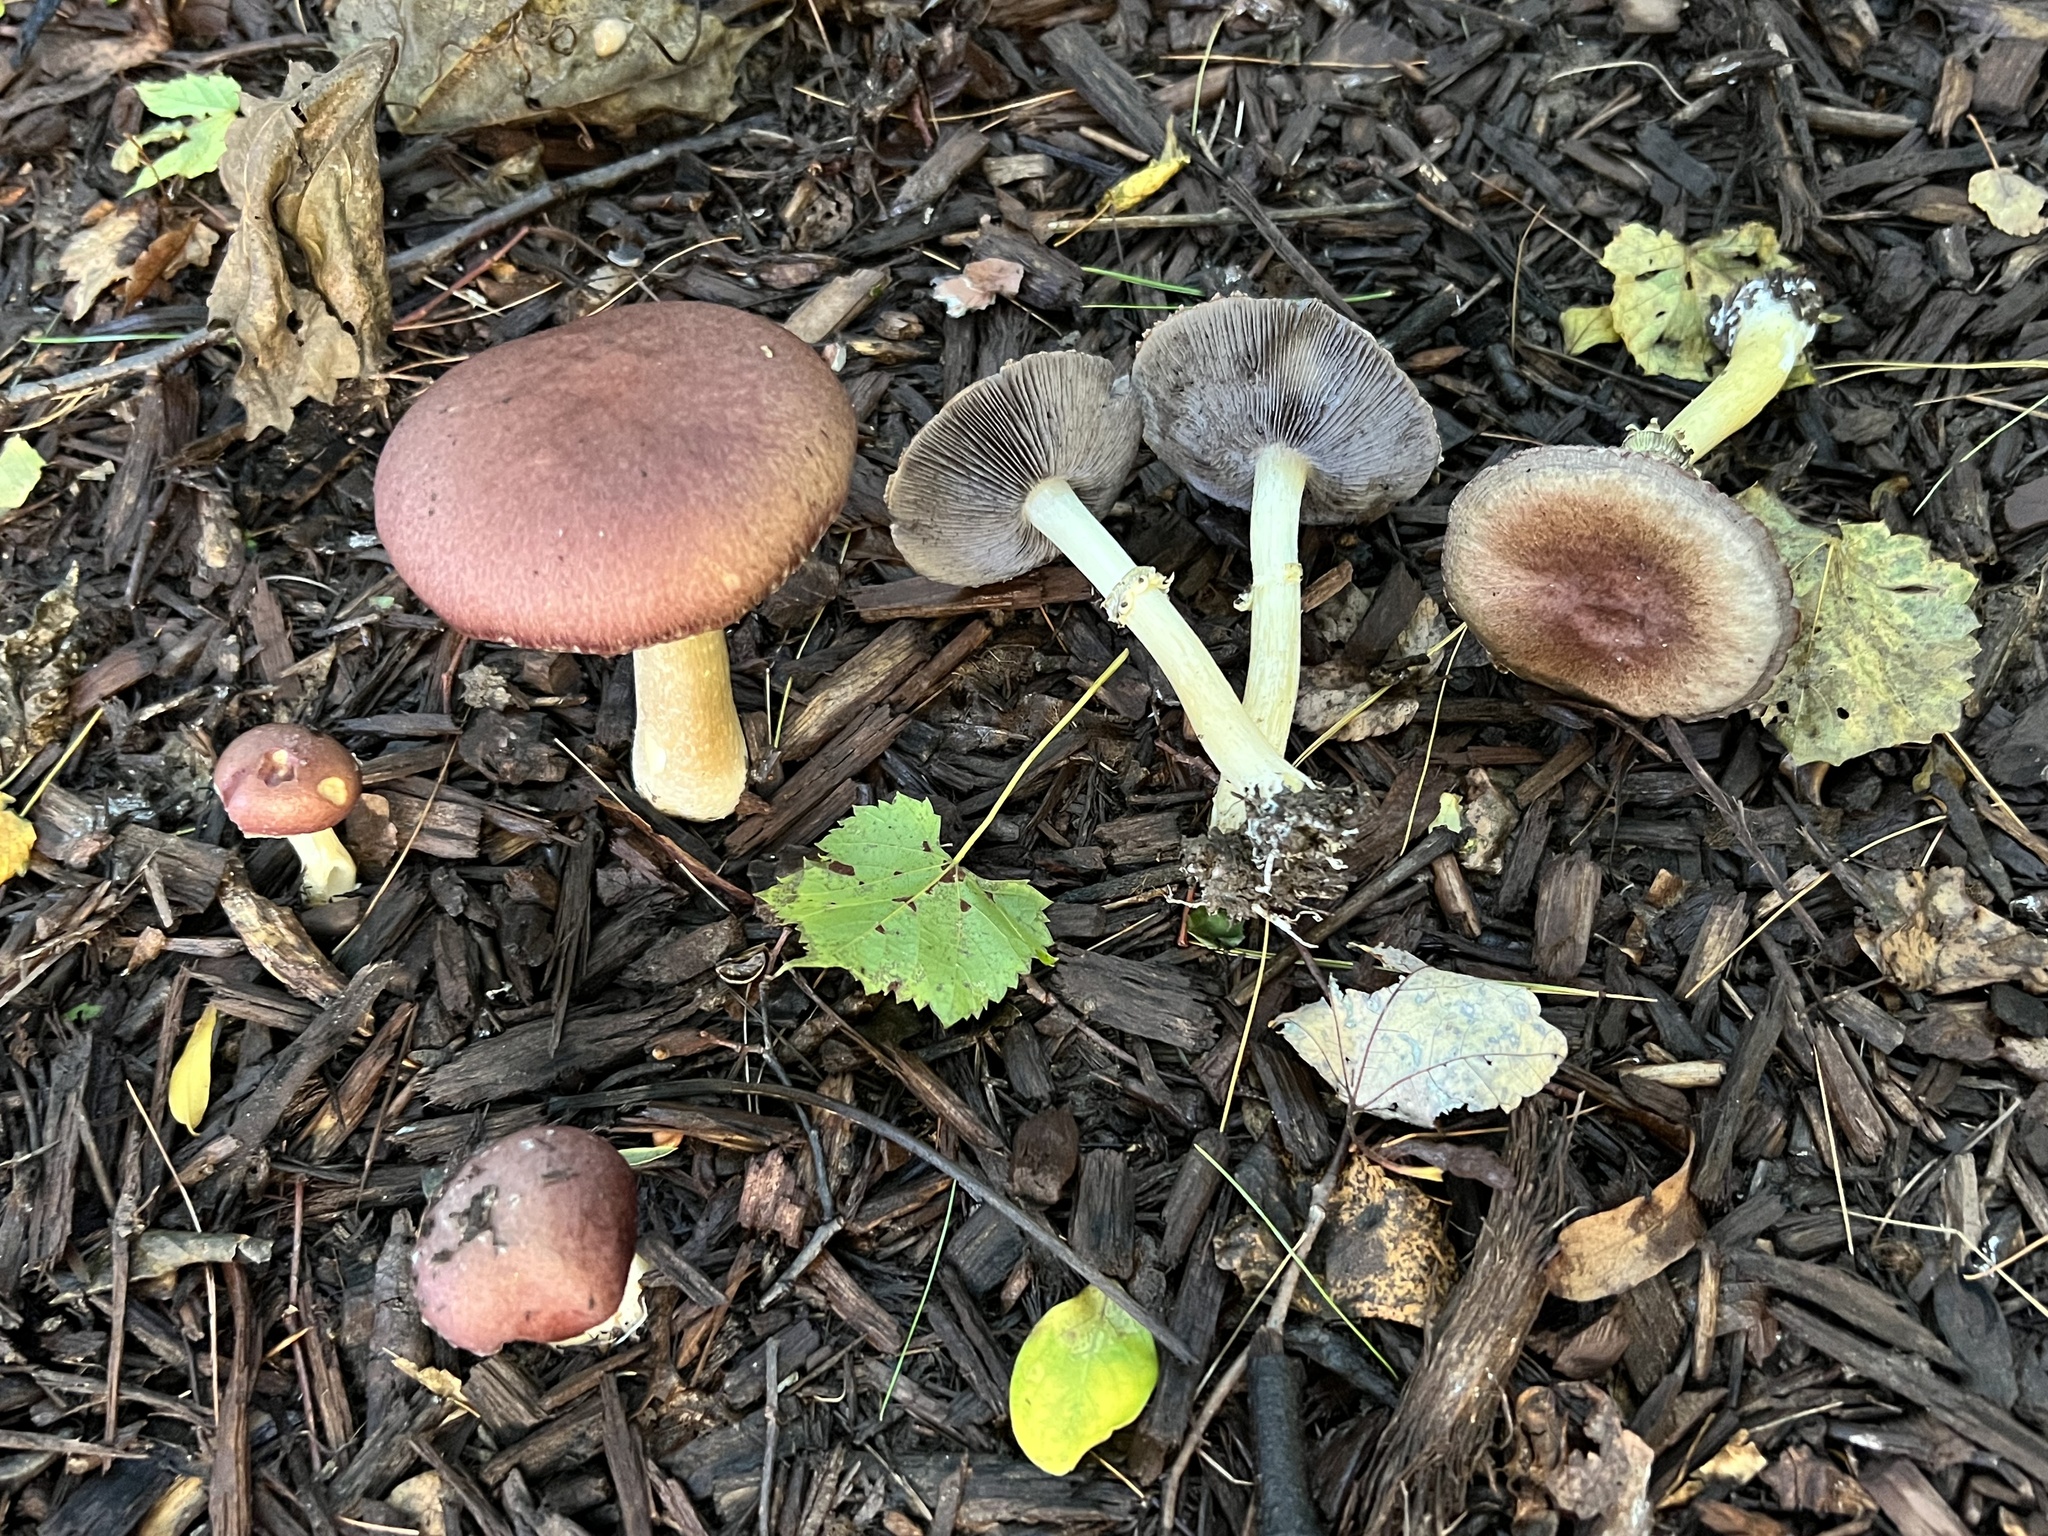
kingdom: Fungi
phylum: Basidiomycota
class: Agaricomycetes
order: Agaricales
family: Strophariaceae
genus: Stropharia
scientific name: Stropharia rugosoannulata
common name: Wine roundhead
